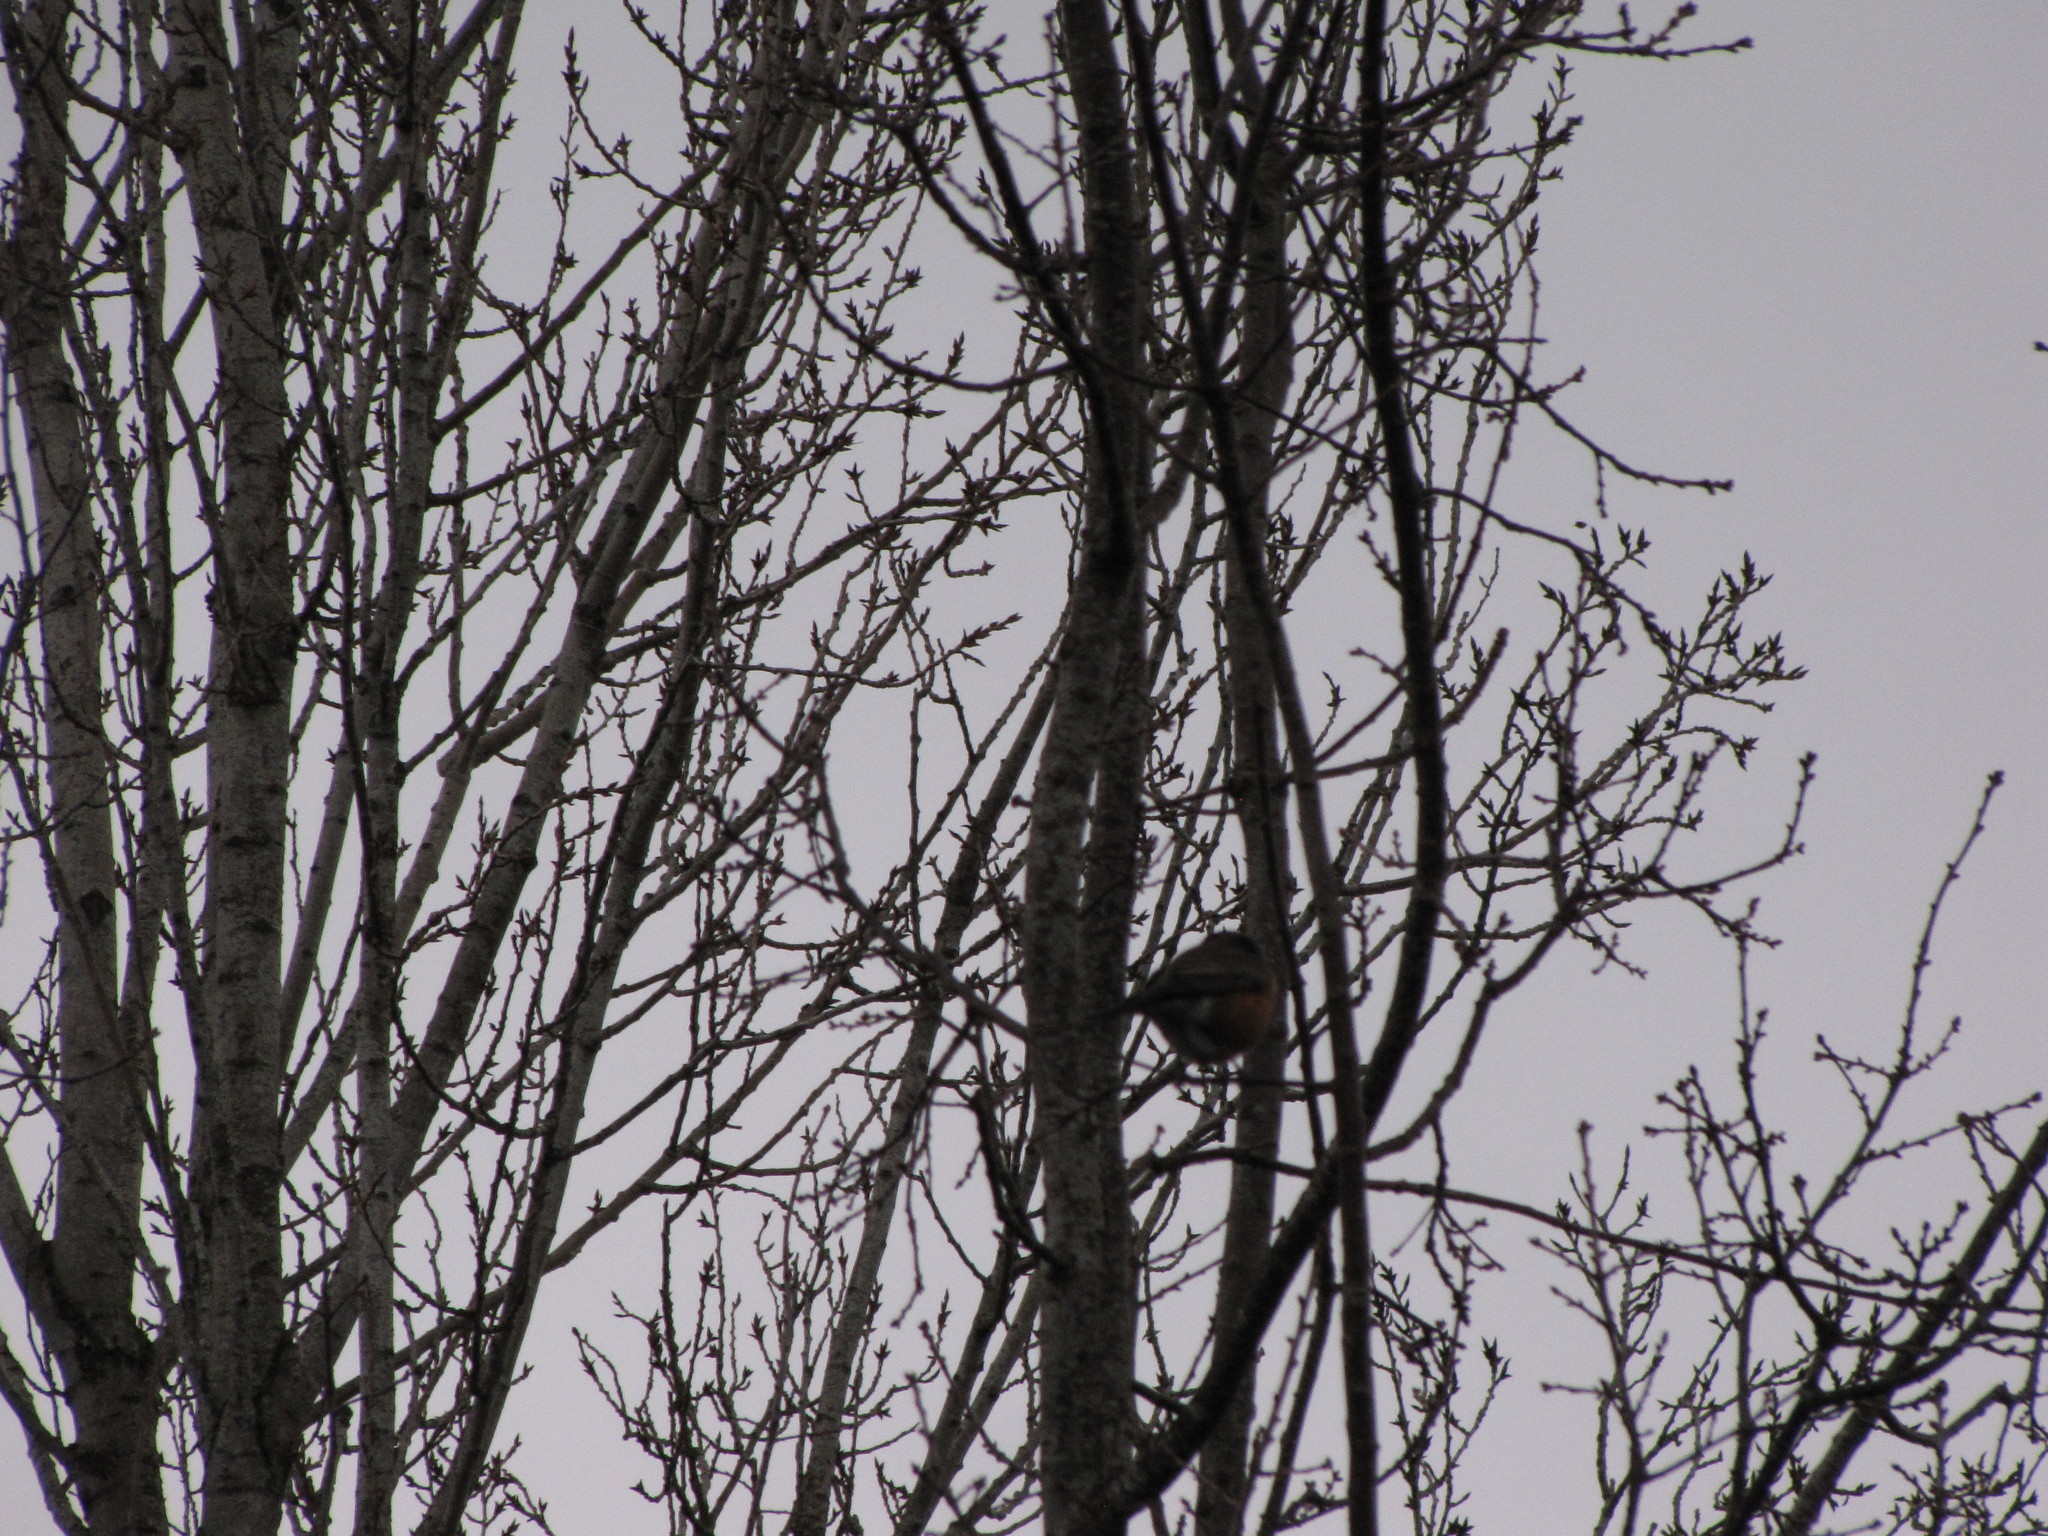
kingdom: Animalia
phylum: Chordata
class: Aves
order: Passeriformes
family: Turdidae
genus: Turdus
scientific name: Turdus migratorius
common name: American robin
